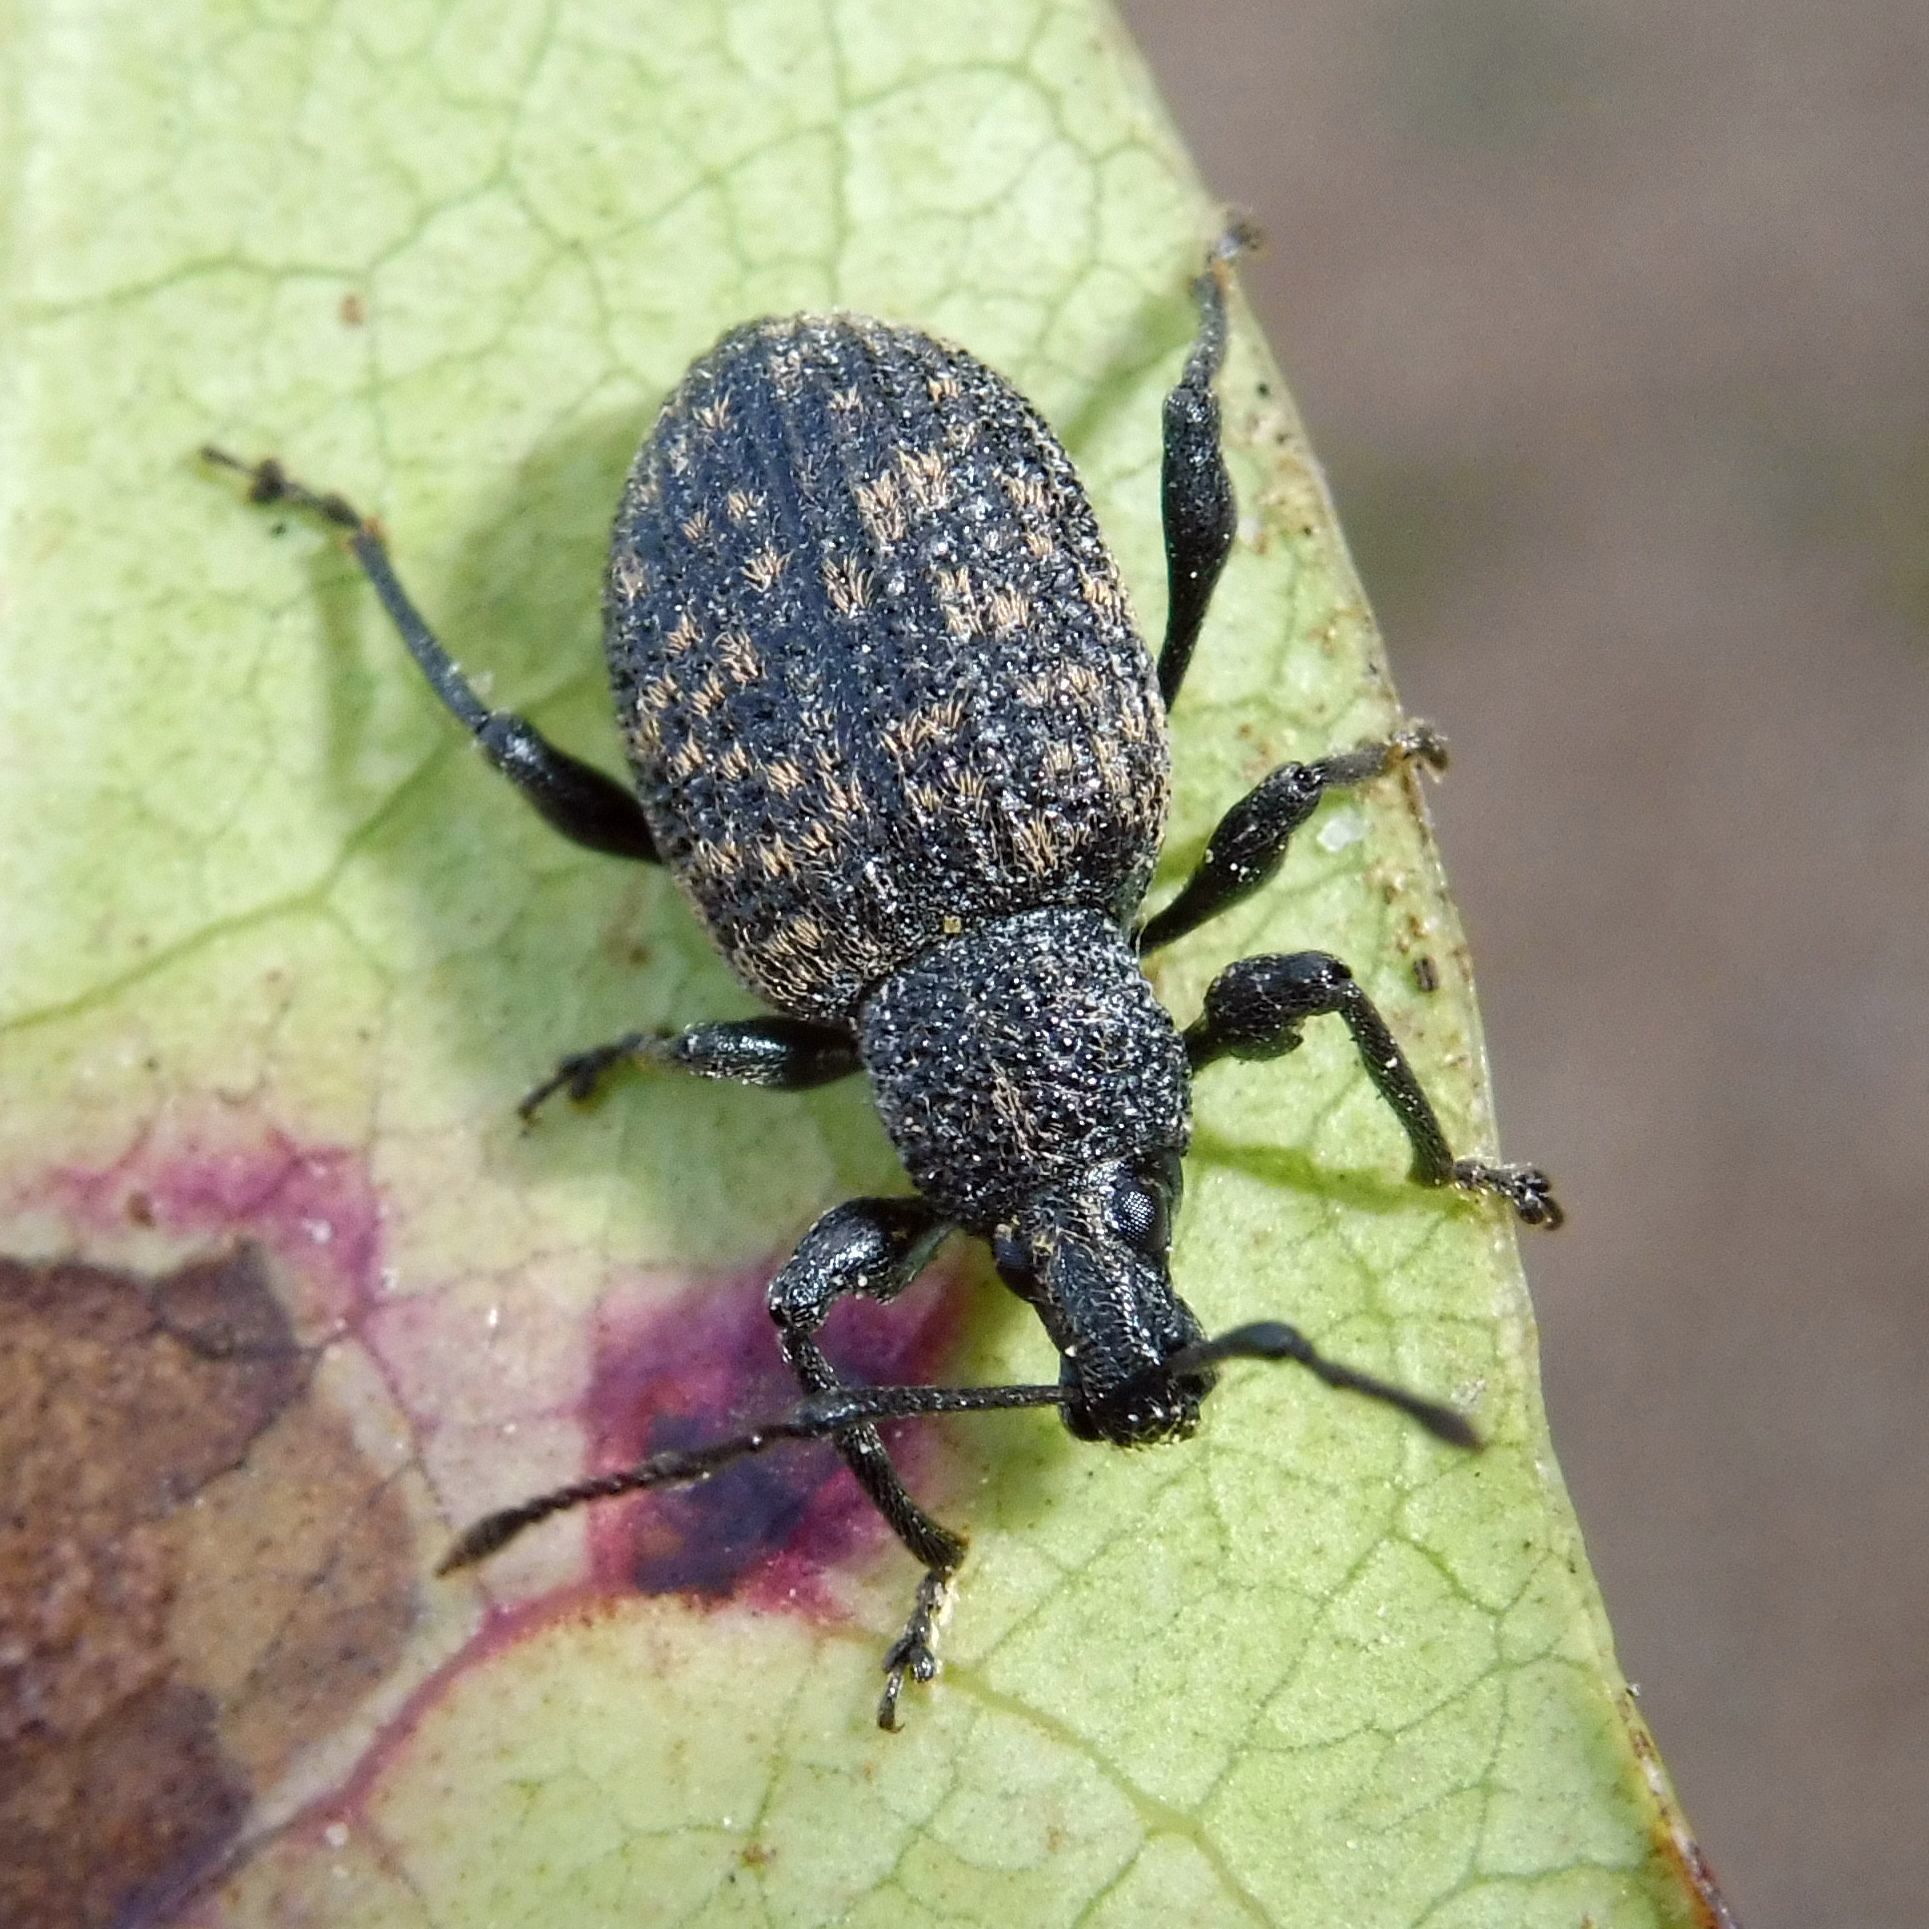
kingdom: Animalia
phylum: Arthropoda
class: Insecta
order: Coleoptera
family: Curculionidae
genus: Otiorhynchus
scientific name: Otiorhynchus sulcatus
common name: Black vine weevil
